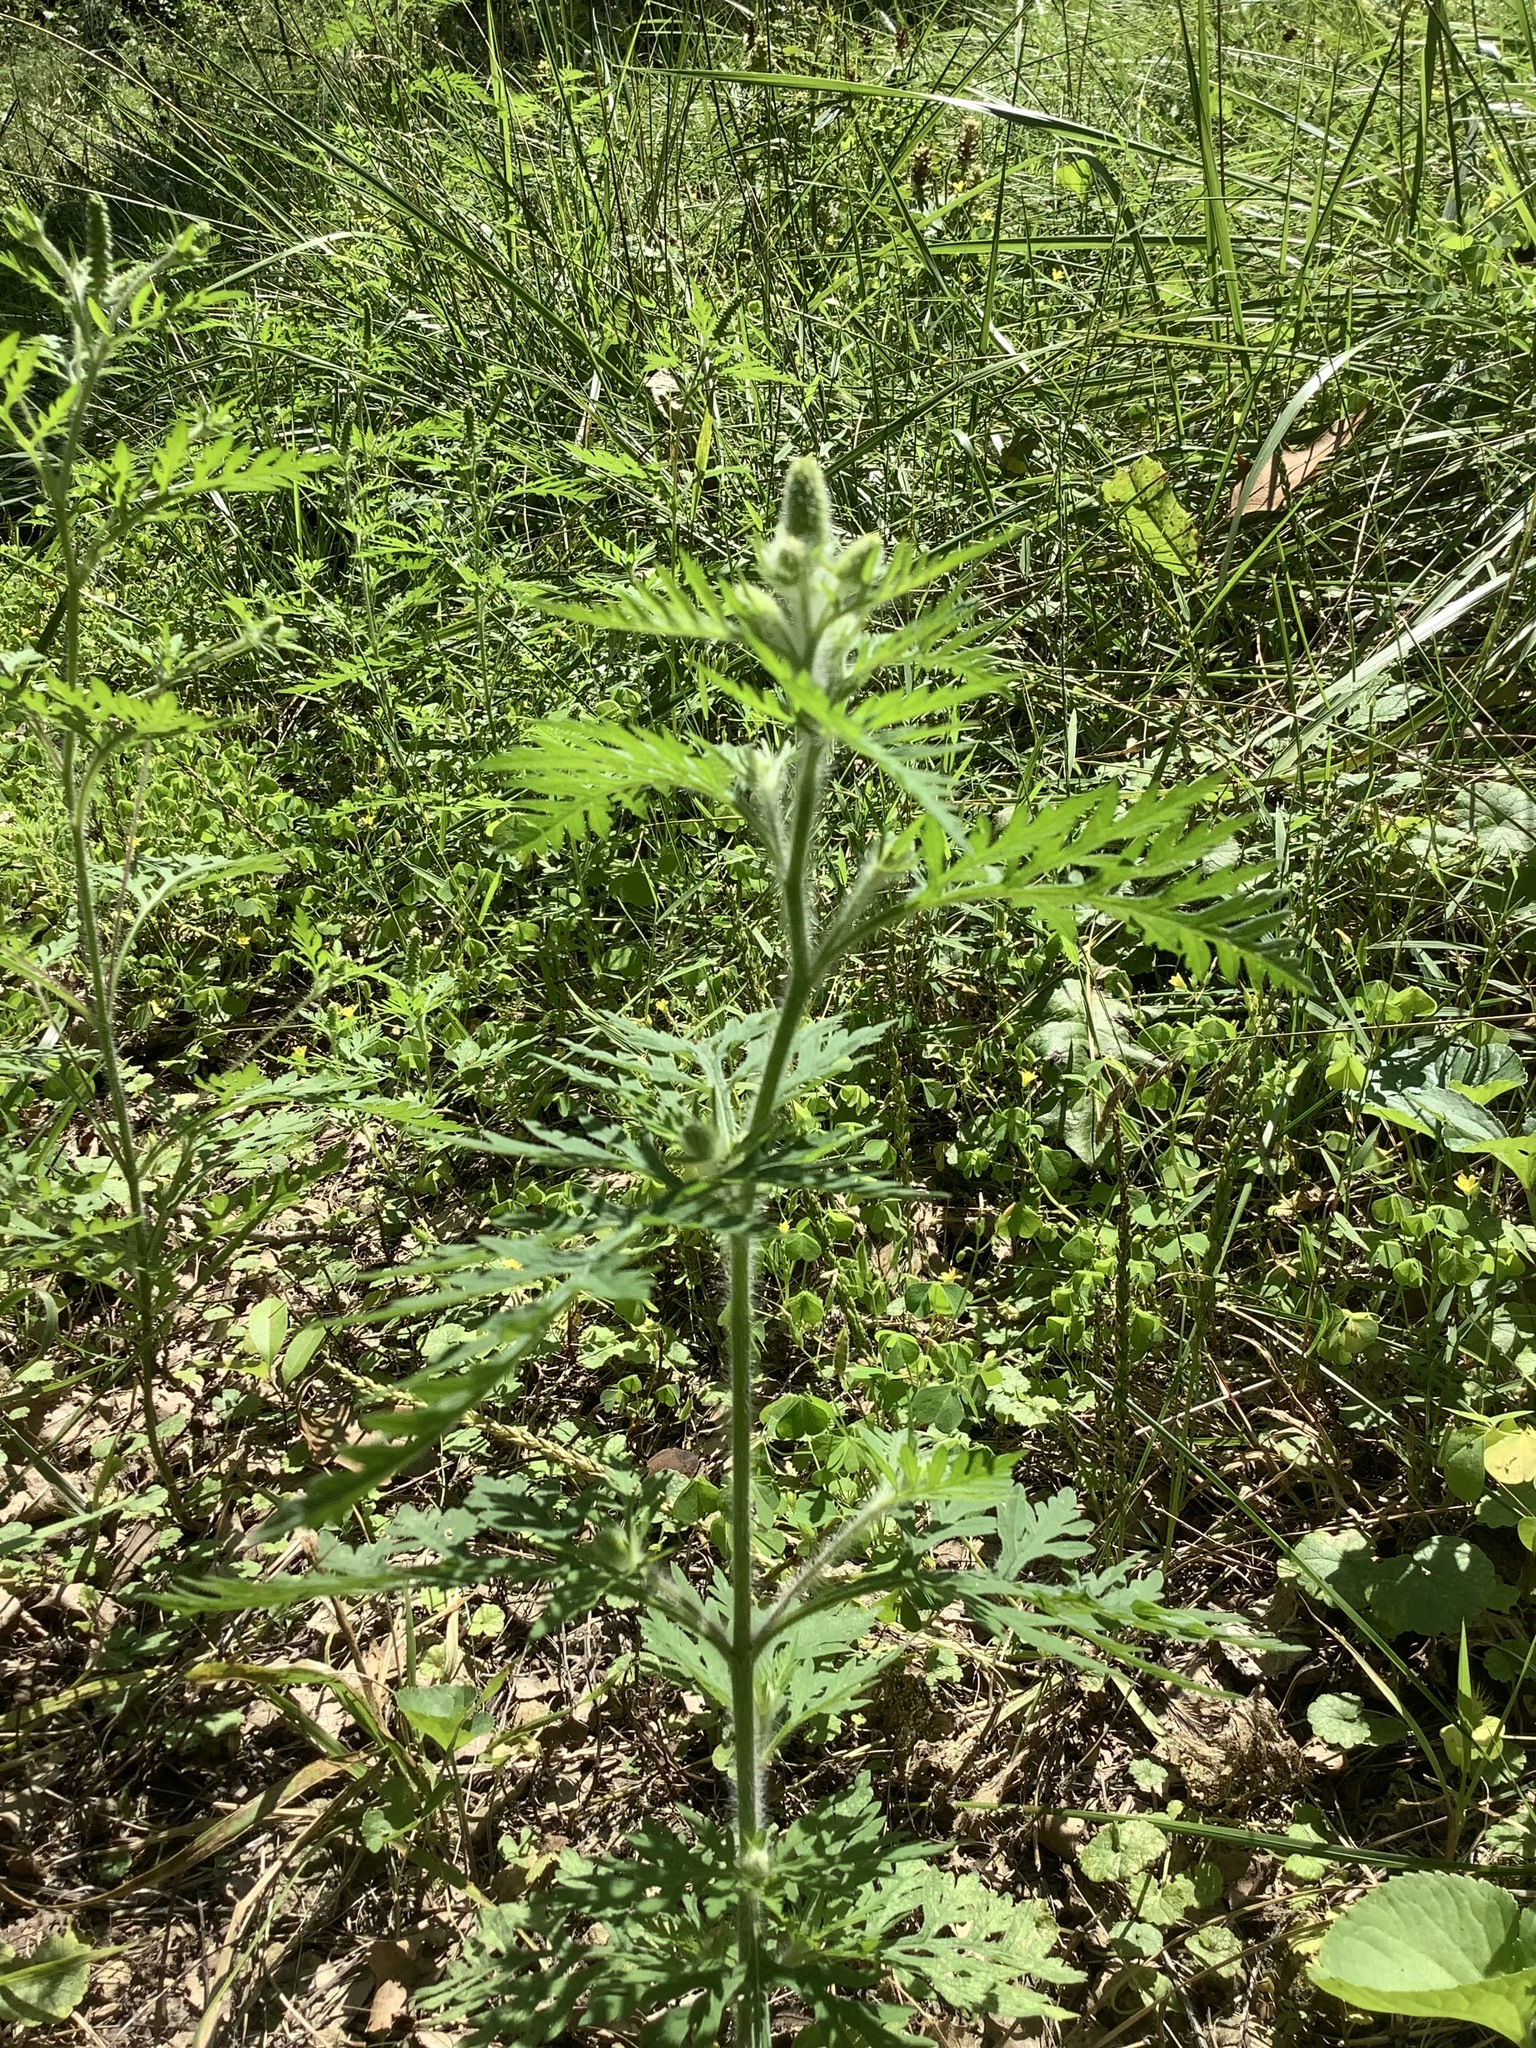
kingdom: Plantae
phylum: Tracheophyta
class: Magnoliopsida
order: Asterales
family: Asteraceae
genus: Ambrosia
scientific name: Ambrosia artemisiifolia
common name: Annual ragweed
